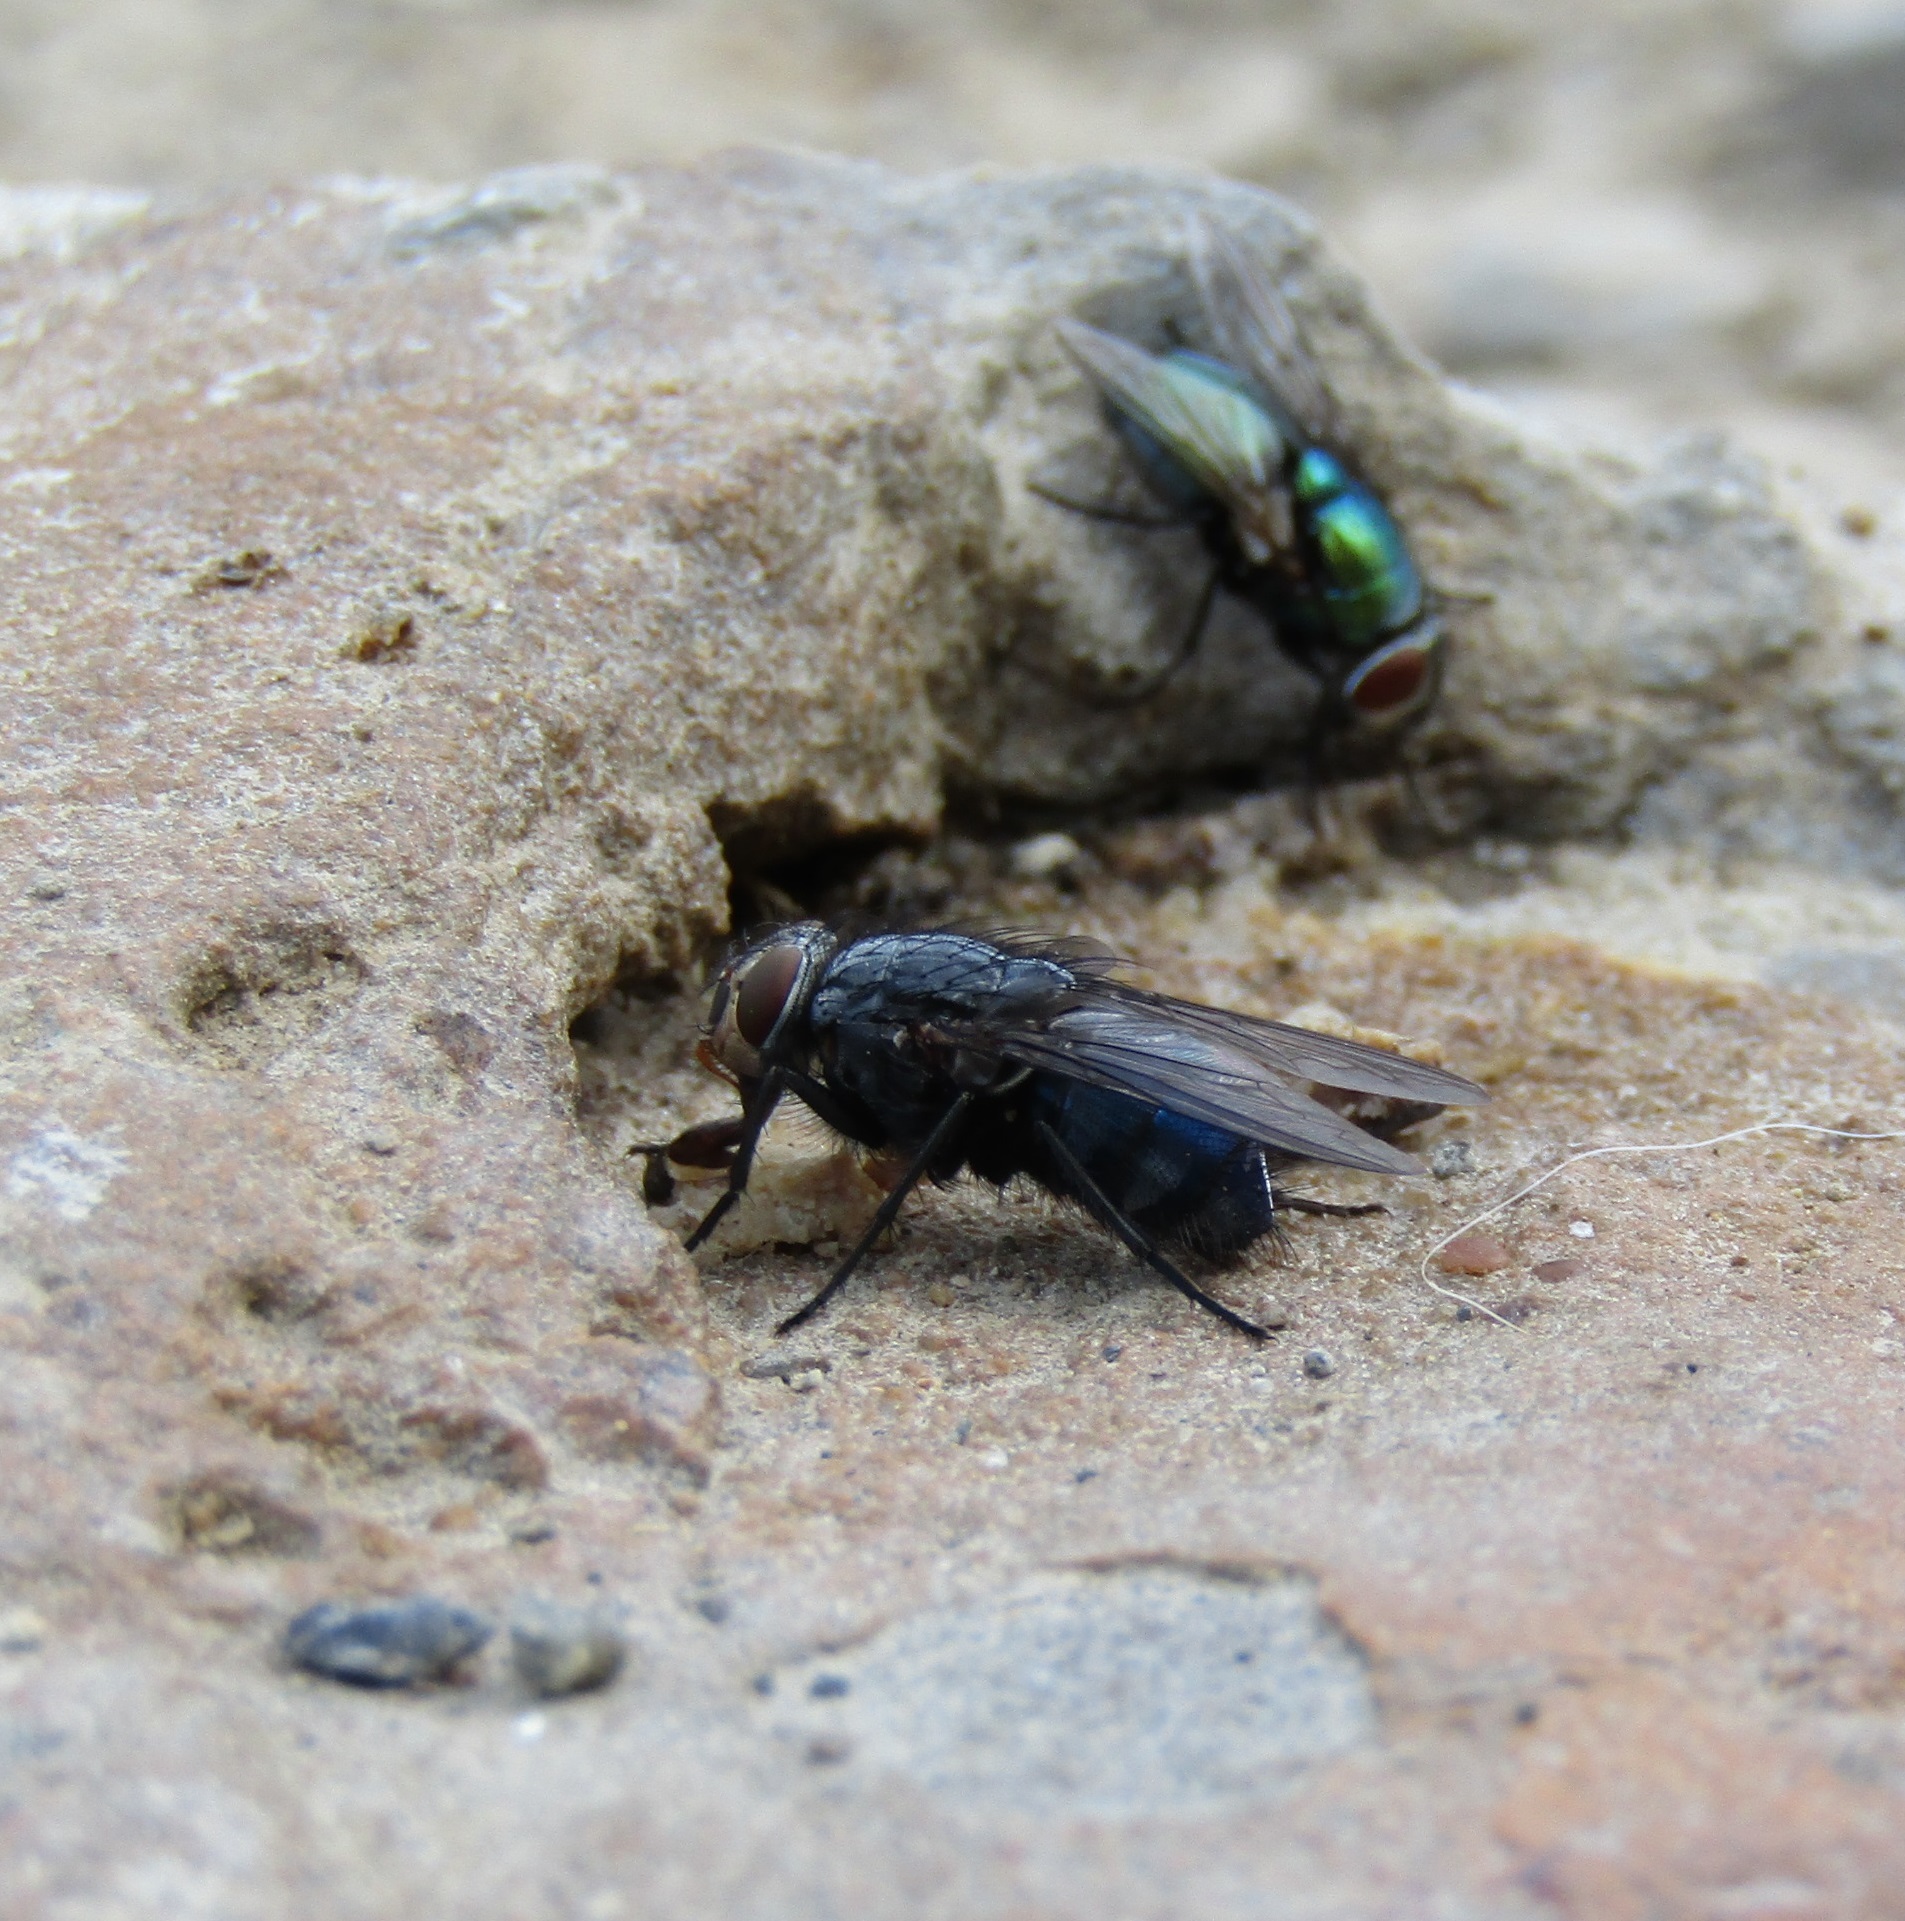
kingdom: Animalia
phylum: Arthropoda
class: Insecta
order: Diptera
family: Calliphoridae
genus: Calliphora
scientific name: Calliphora vicina
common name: Common blow flie
